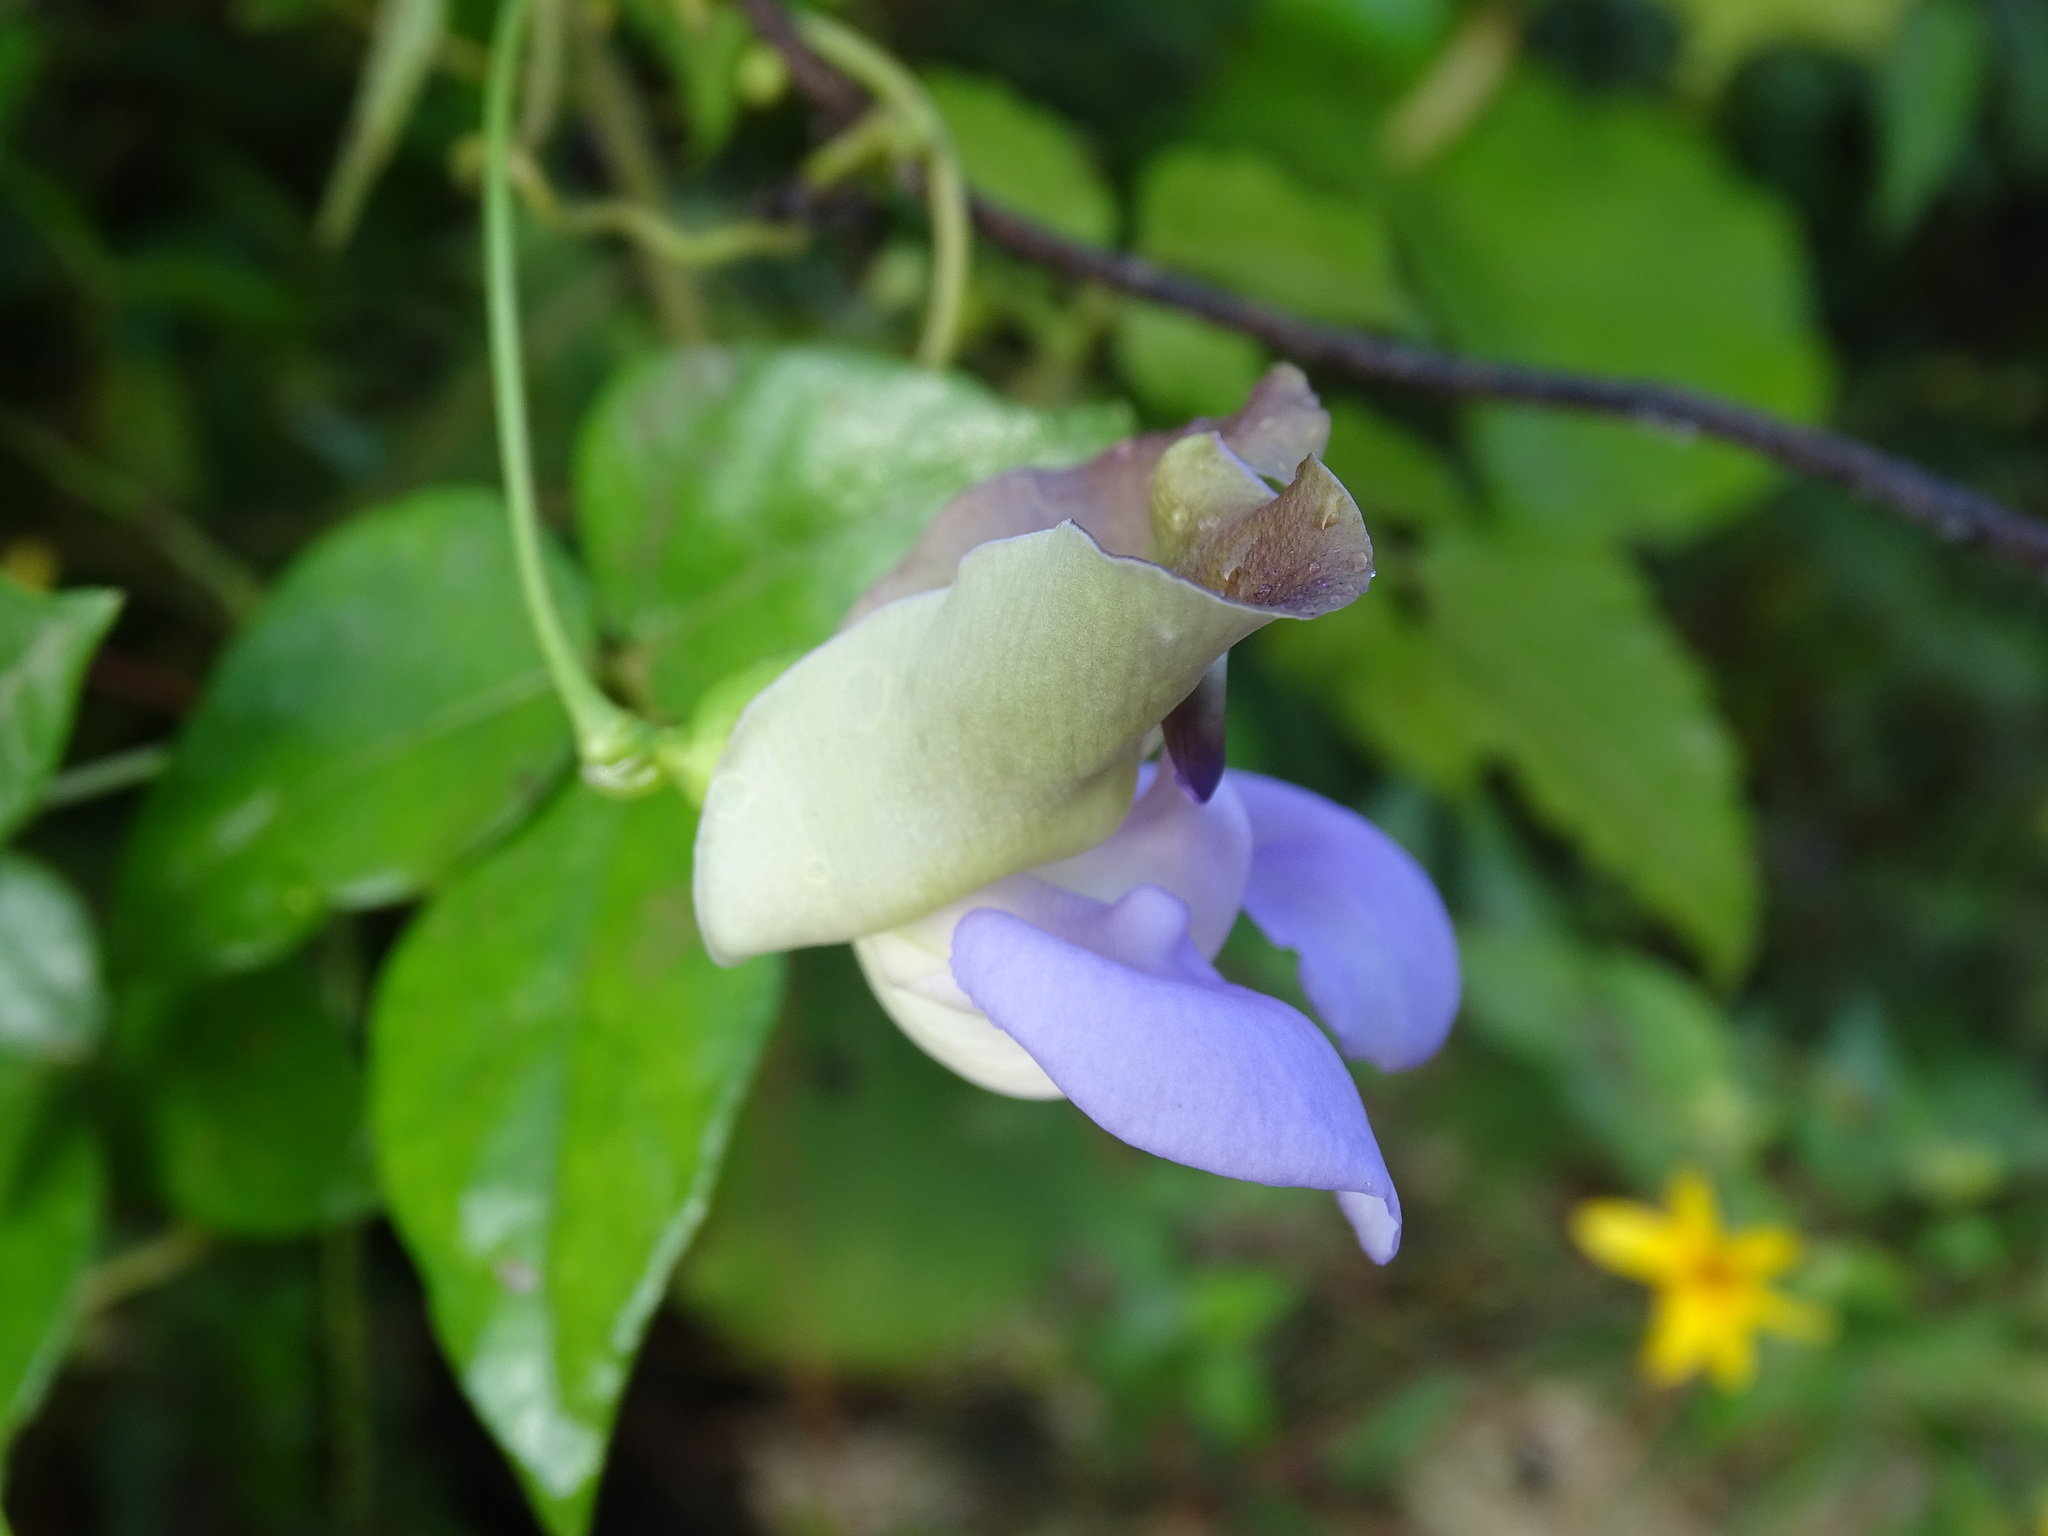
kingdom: Plantae
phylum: Tracheophyta
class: Magnoliopsida
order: Fabales
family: Fabaceae
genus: Sigmoidotropis
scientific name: Sigmoidotropis elegans
